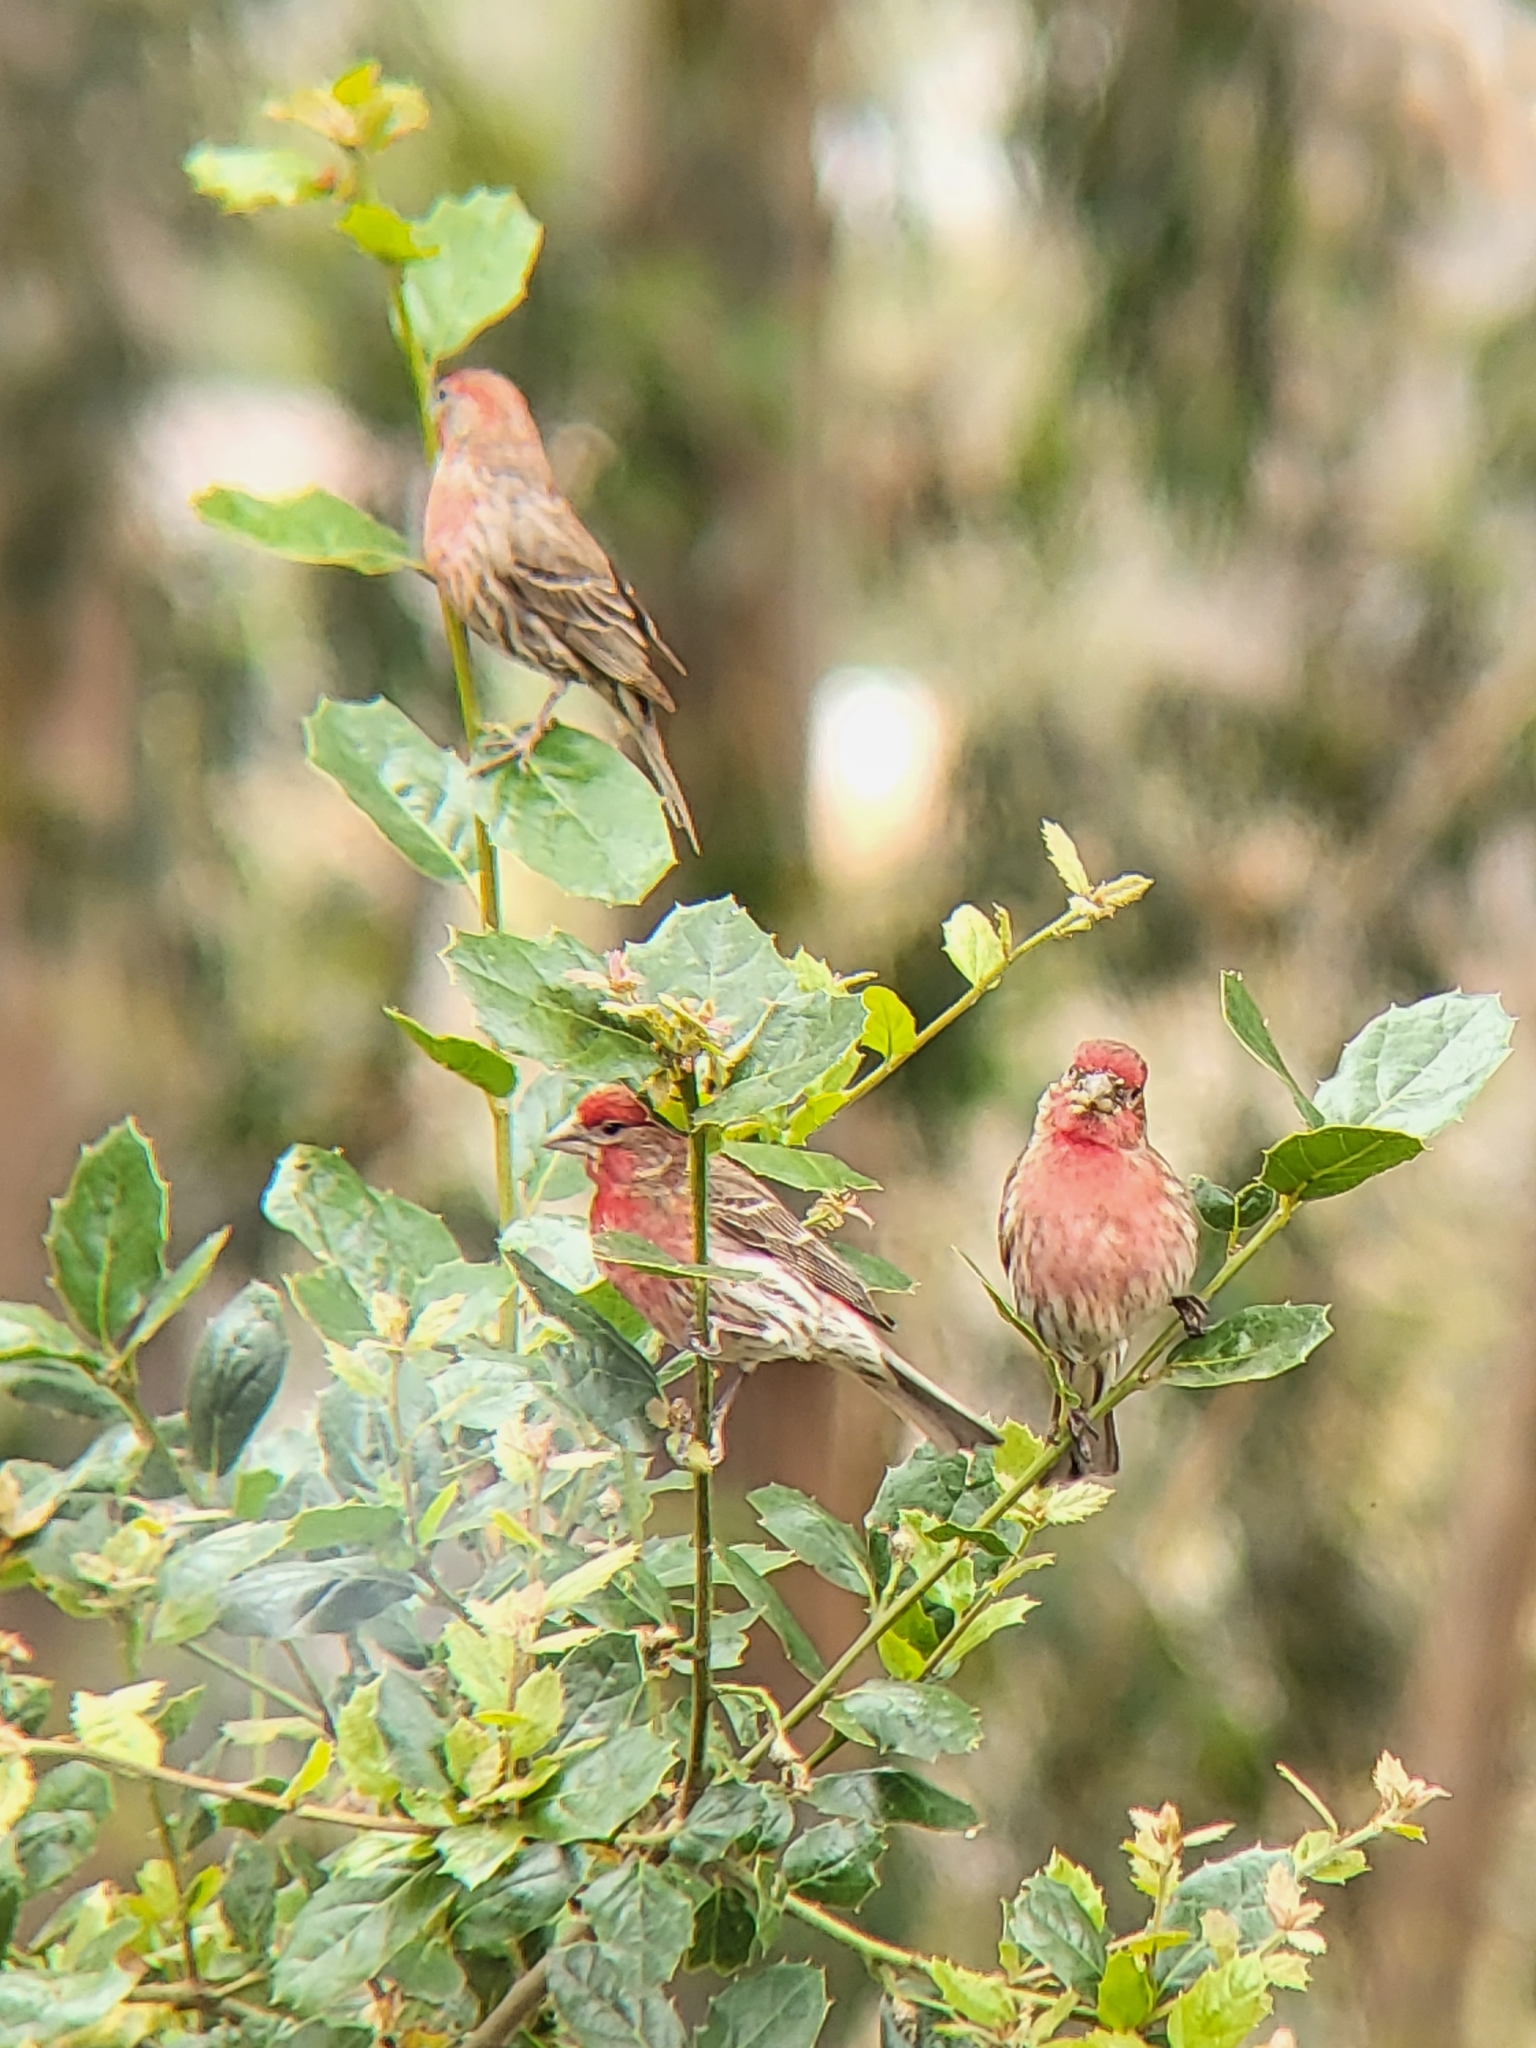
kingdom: Animalia
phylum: Chordata
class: Aves
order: Passeriformes
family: Fringillidae
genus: Haemorhous
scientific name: Haemorhous mexicanus
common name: House finch
